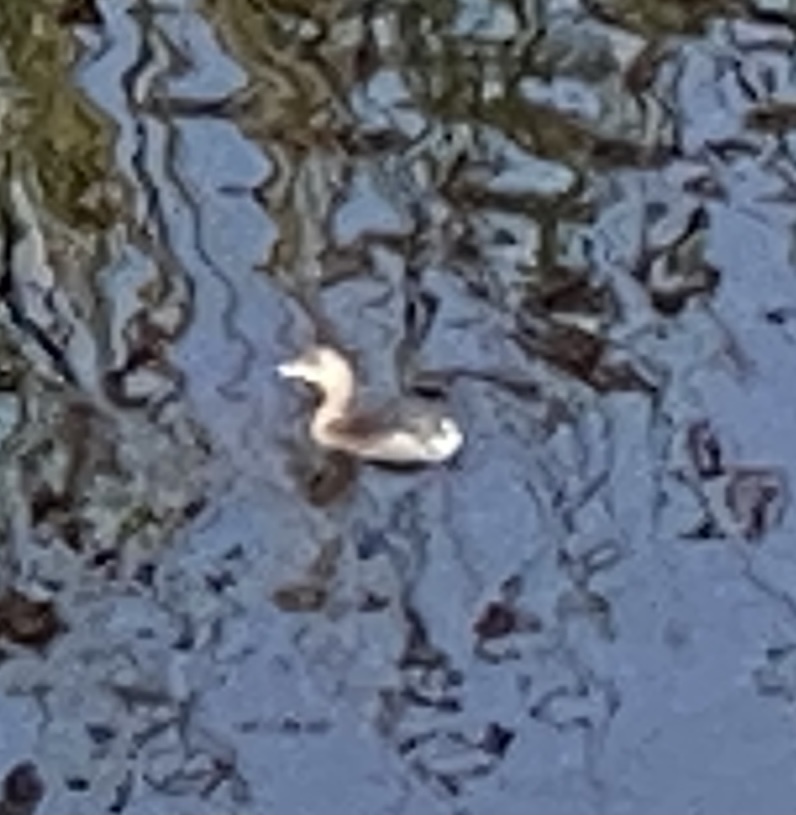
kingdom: Animalia
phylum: Chordata
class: Aves
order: Podicipediformes
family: Podicipedidae
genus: Podilymbus
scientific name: Podilymbus podiceps
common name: Pied-billed grebe
